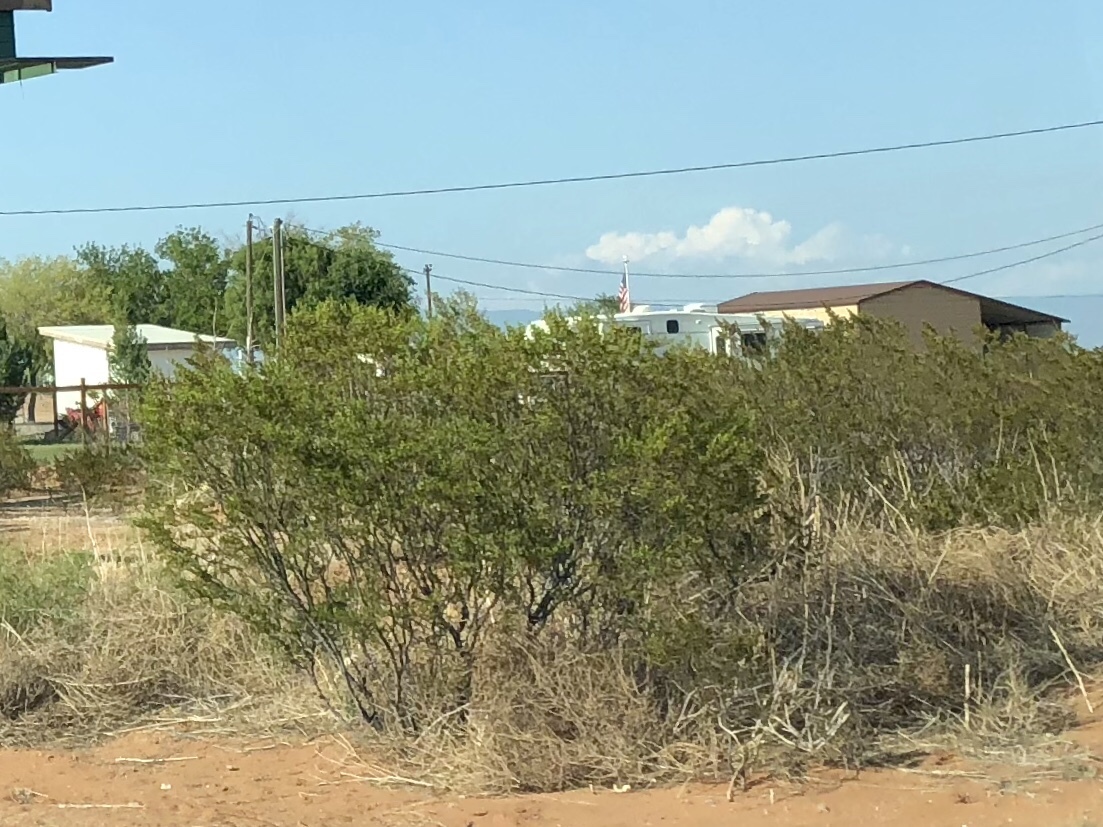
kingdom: Plantae
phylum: Tracheophyta
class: Magnoliopsida
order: Zygophyllales
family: Zygophyllaceae
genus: Larrea
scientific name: Larrea tridentata
